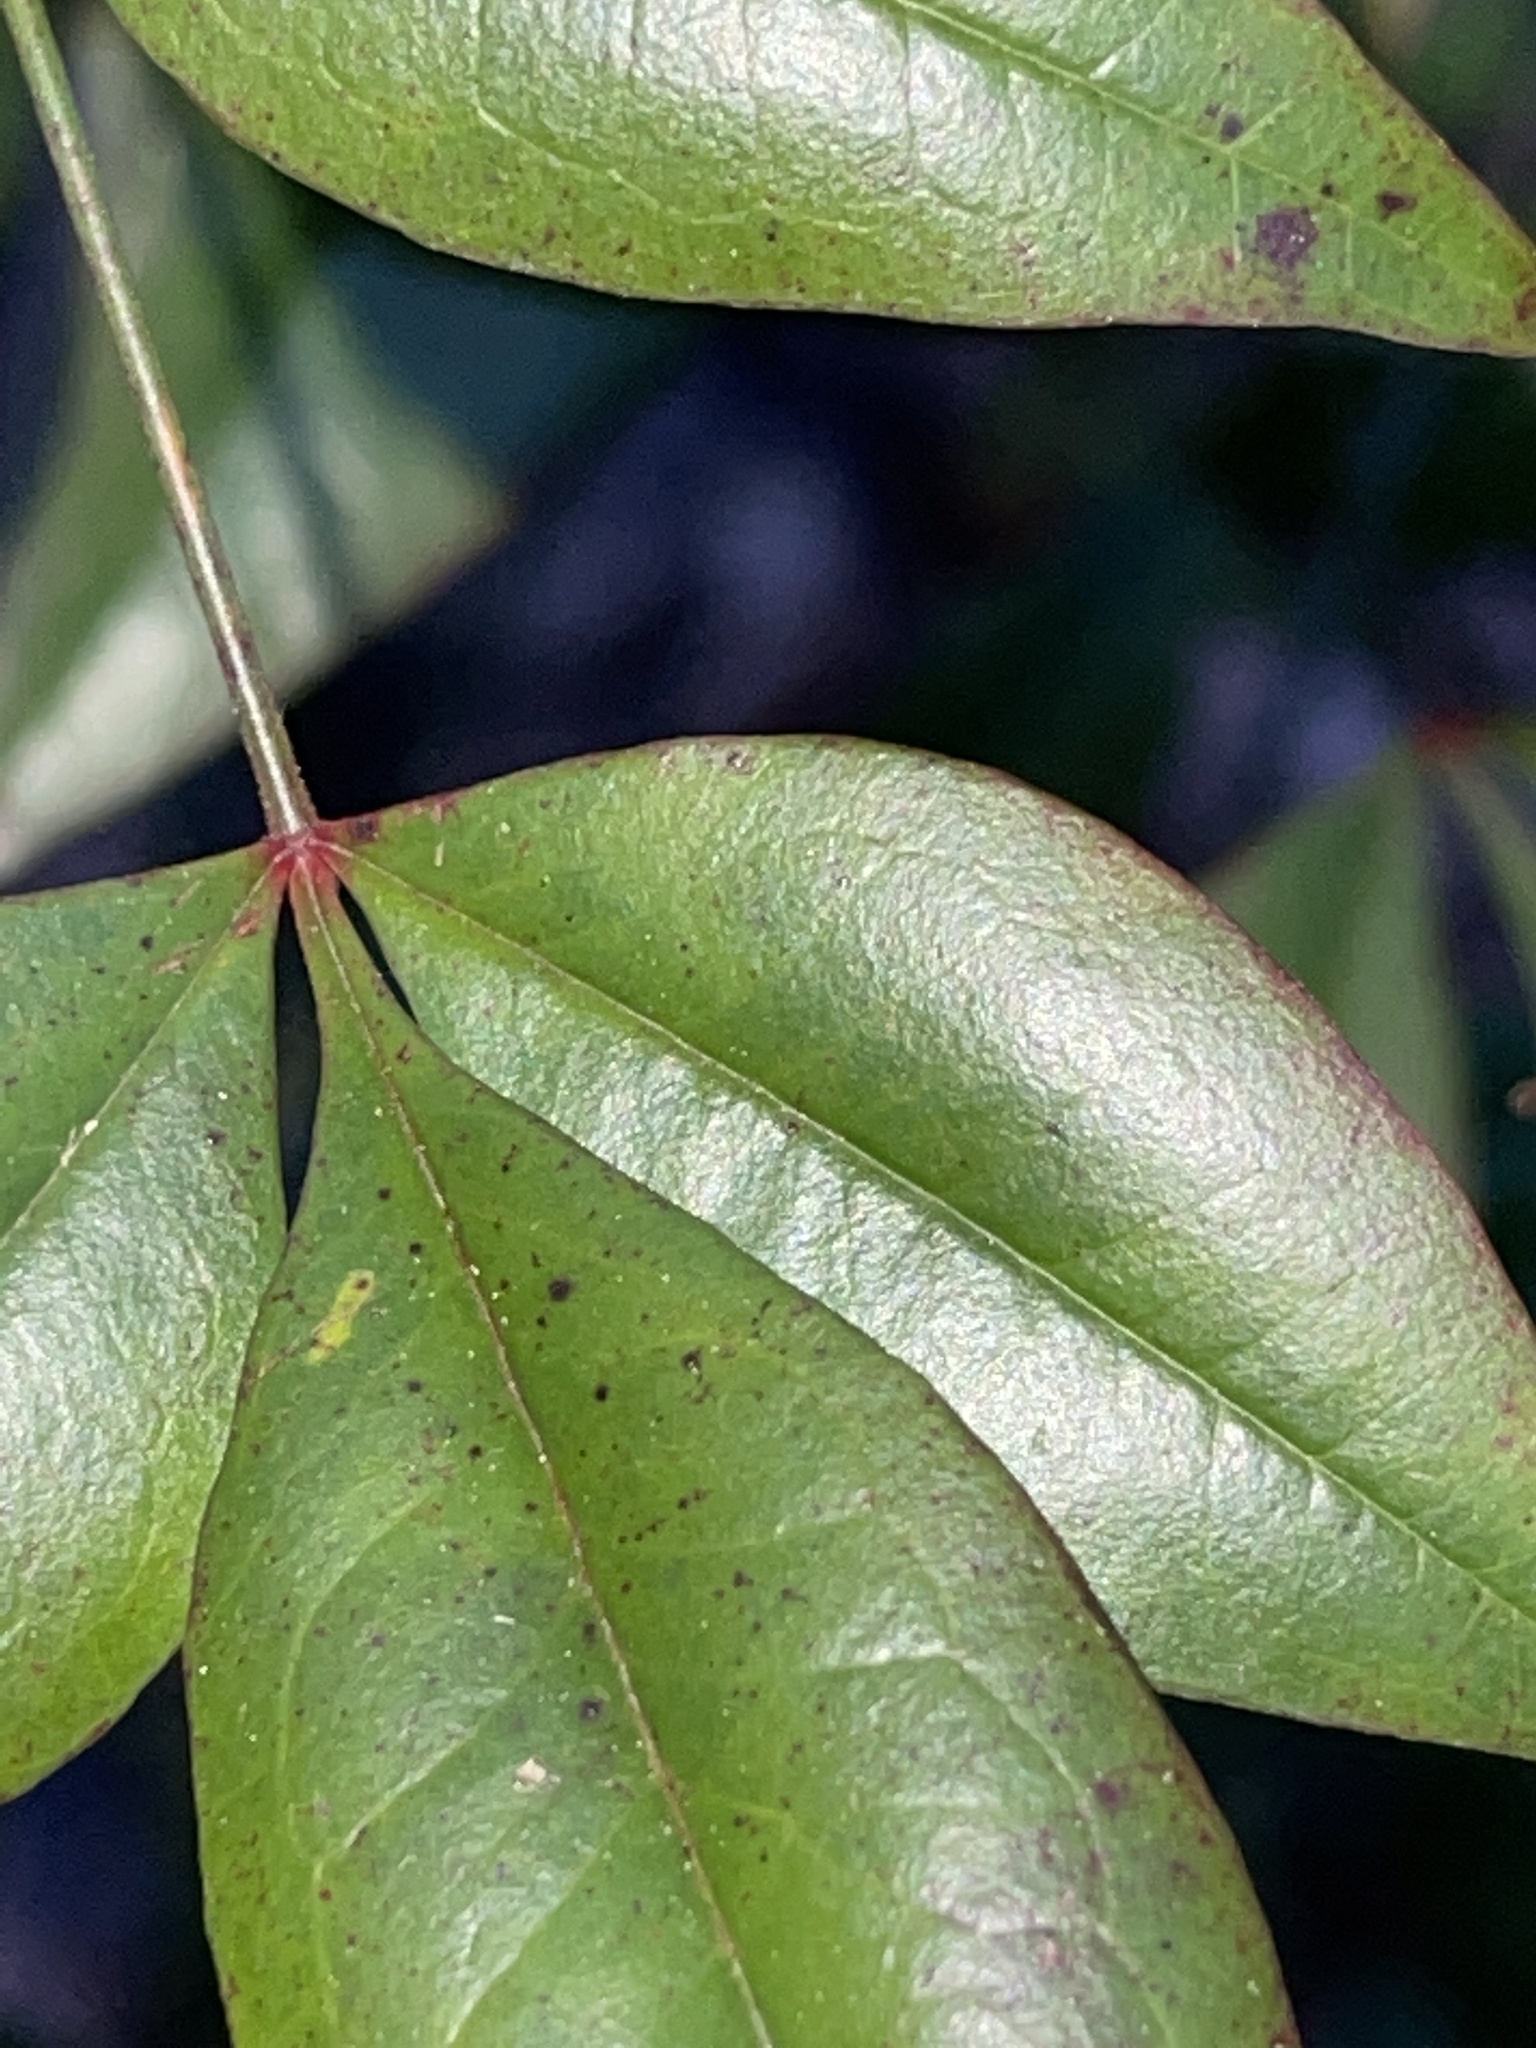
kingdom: Plantae
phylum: Tracheophyta
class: Magnoliopsida
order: Ranunculales
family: Berberidaceae
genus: Nandina
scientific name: Nandina domestica
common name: Sacred bamboo
